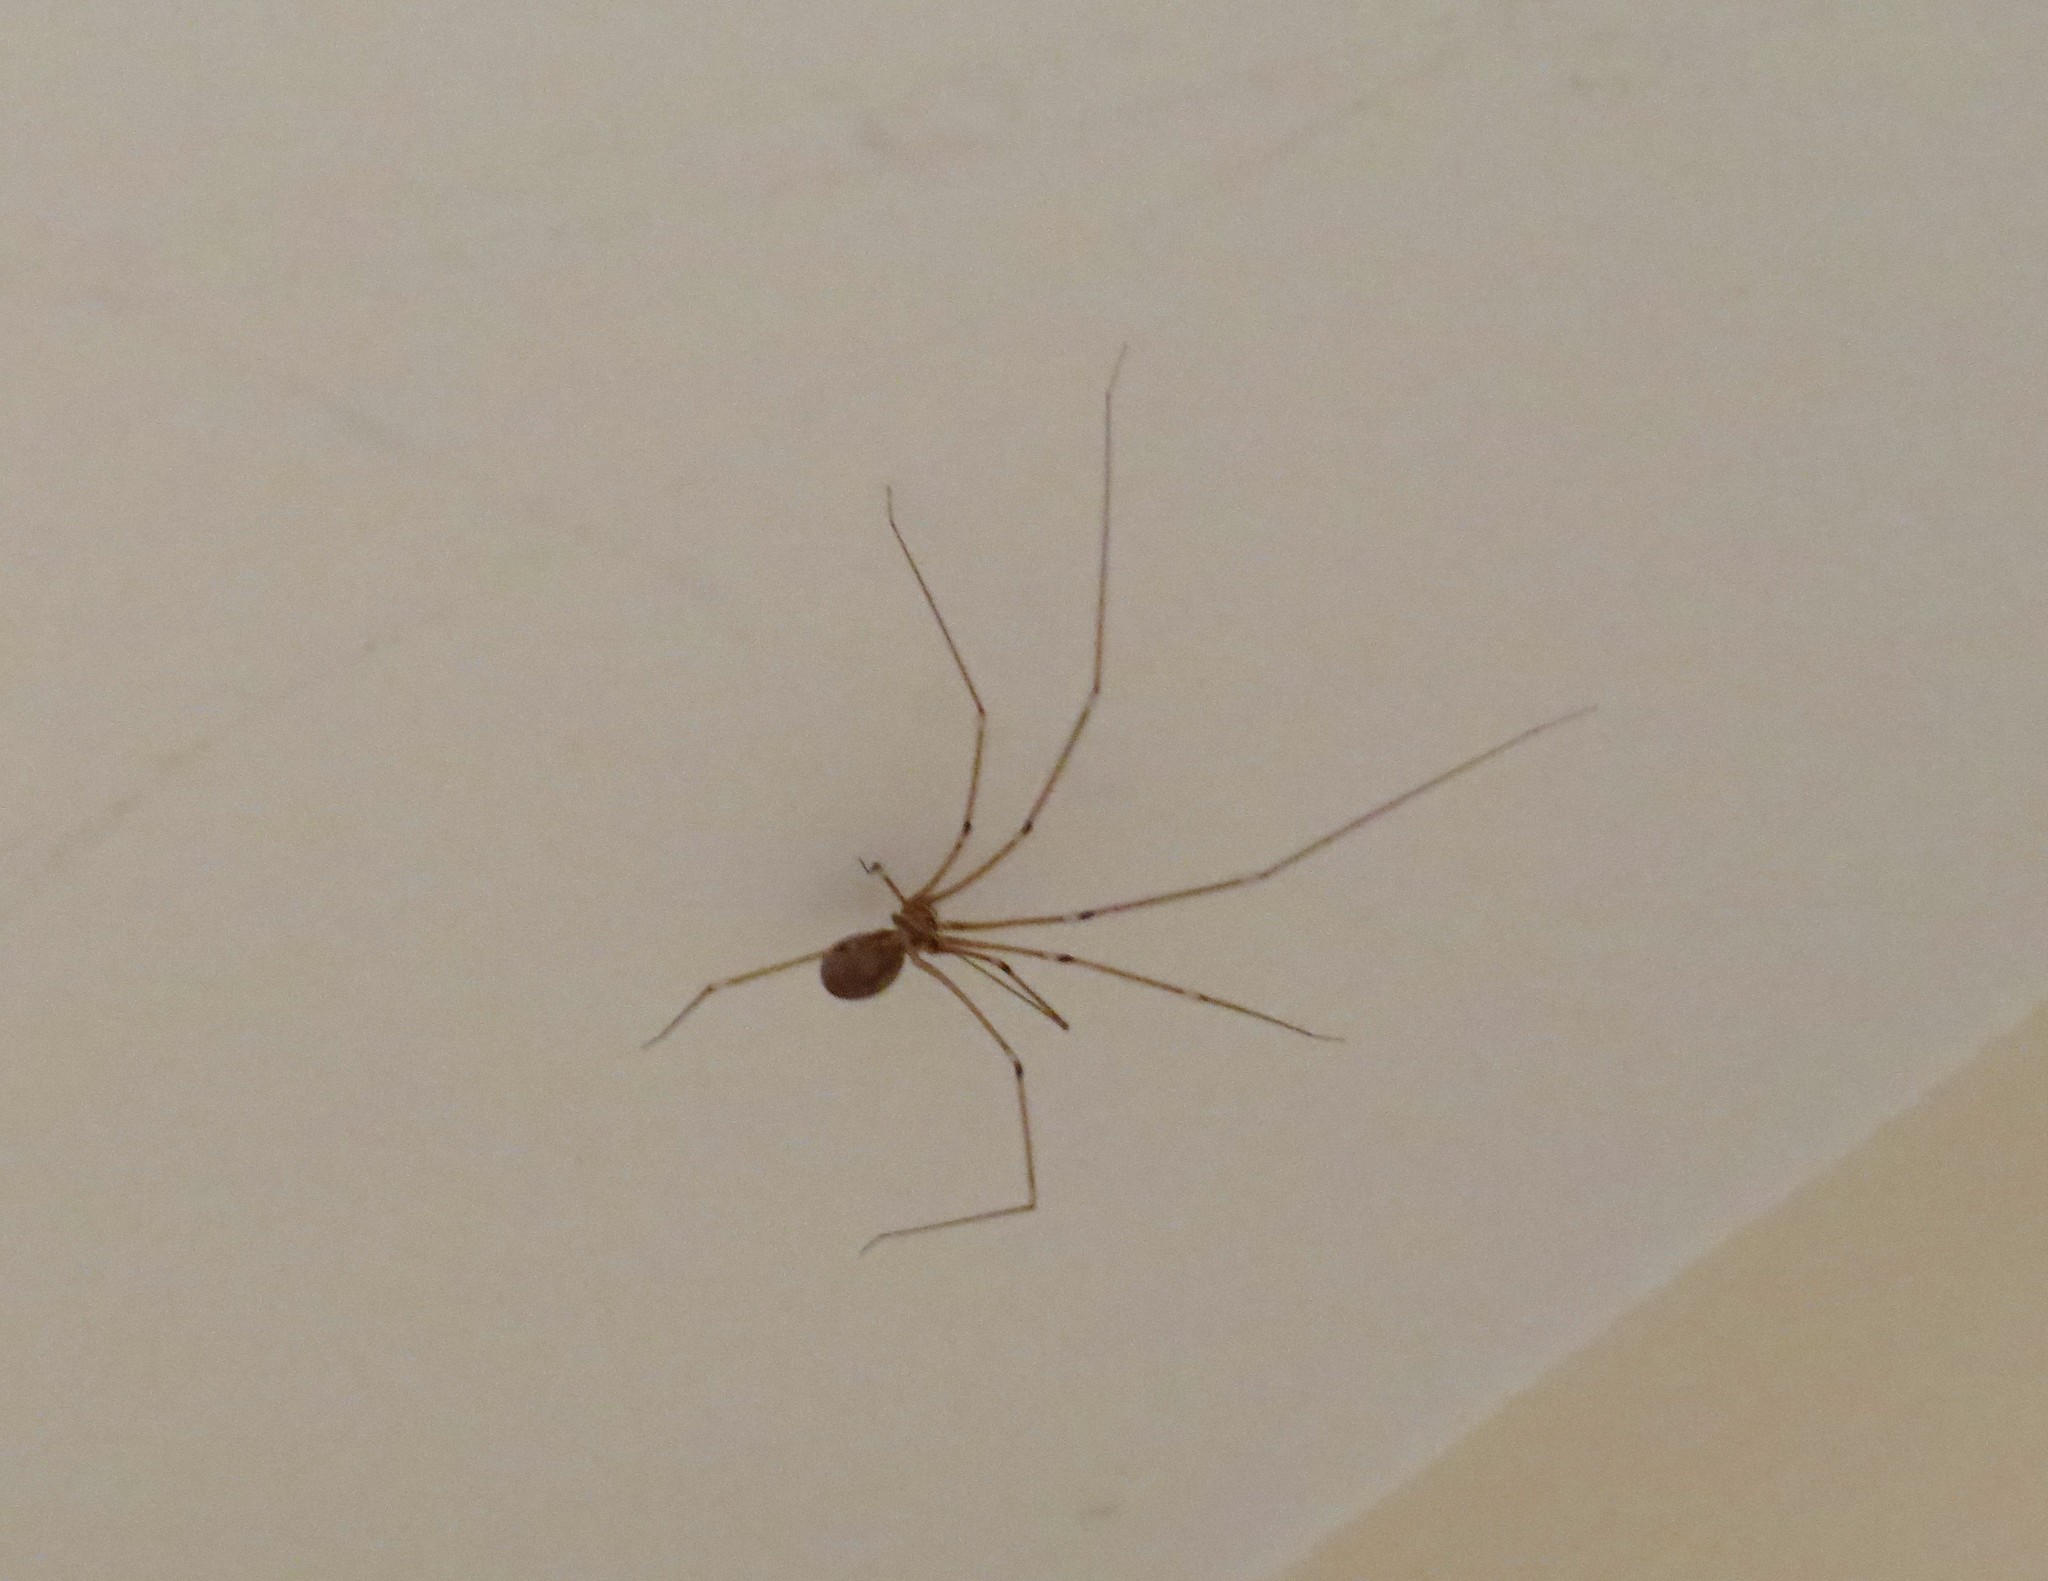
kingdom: Animalia
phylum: Arthropoda
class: Arachnida
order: Araneae
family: Pholcidae
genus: Pholcus
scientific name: Pholcus phalangioides
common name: Longbodied cellar spider
